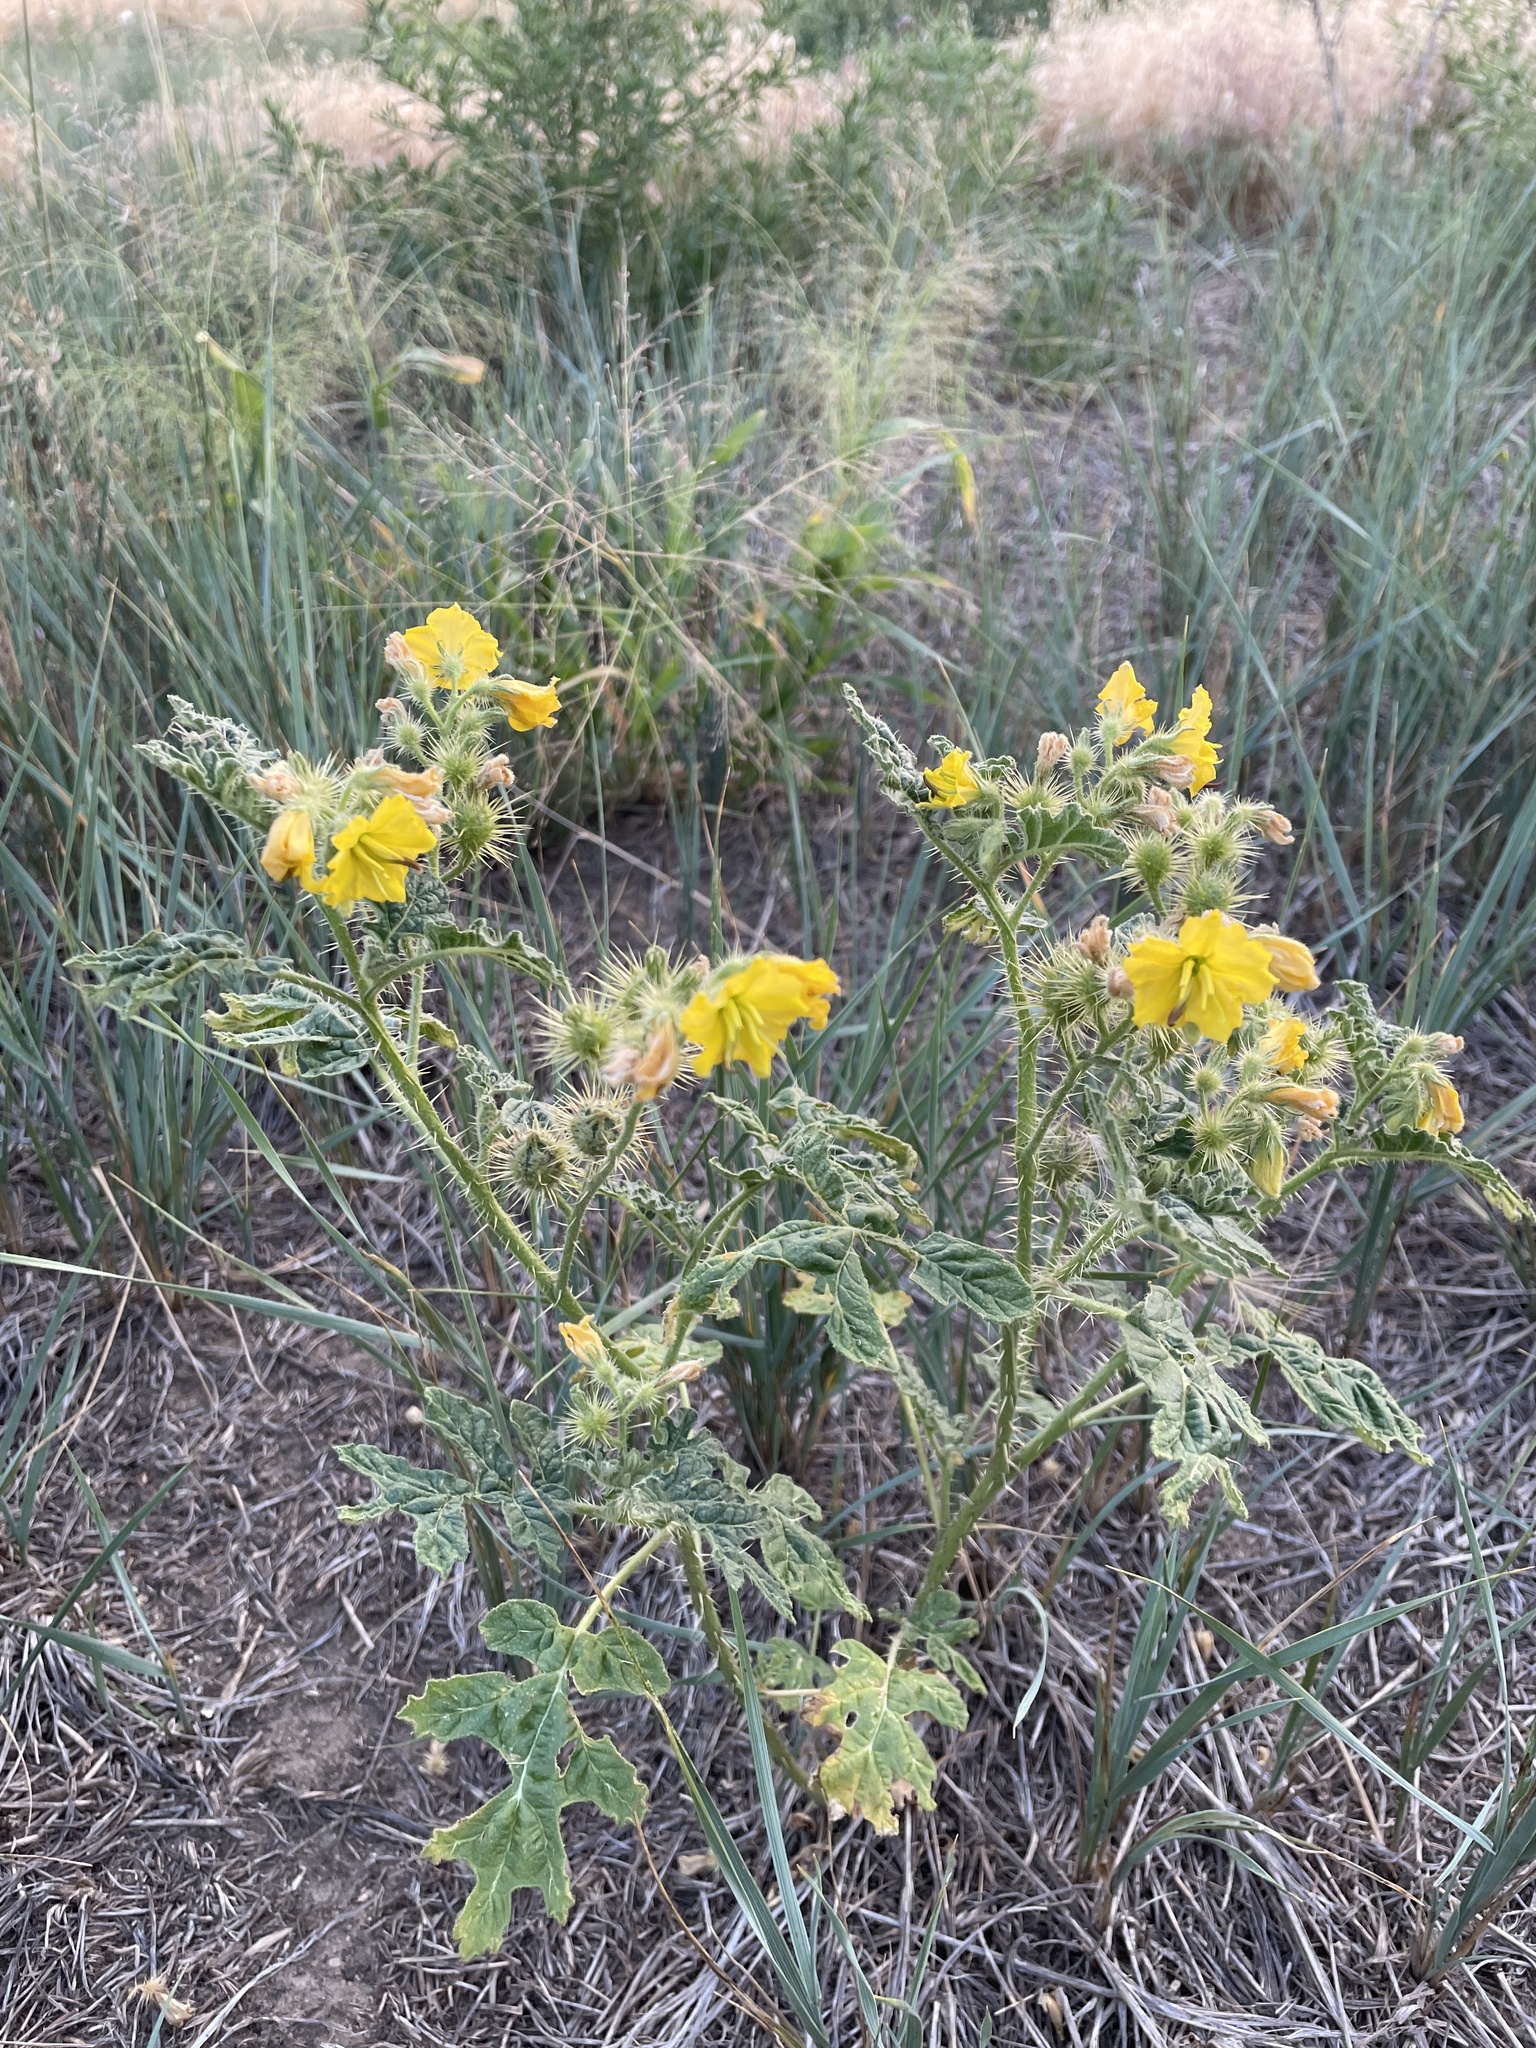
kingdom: Plantae
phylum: Tracheophyta
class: Magnoliopsida
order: Solanales
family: Solanaceae
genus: Solanum
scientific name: Solanum angustifolium
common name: Buffalobur nightshade
